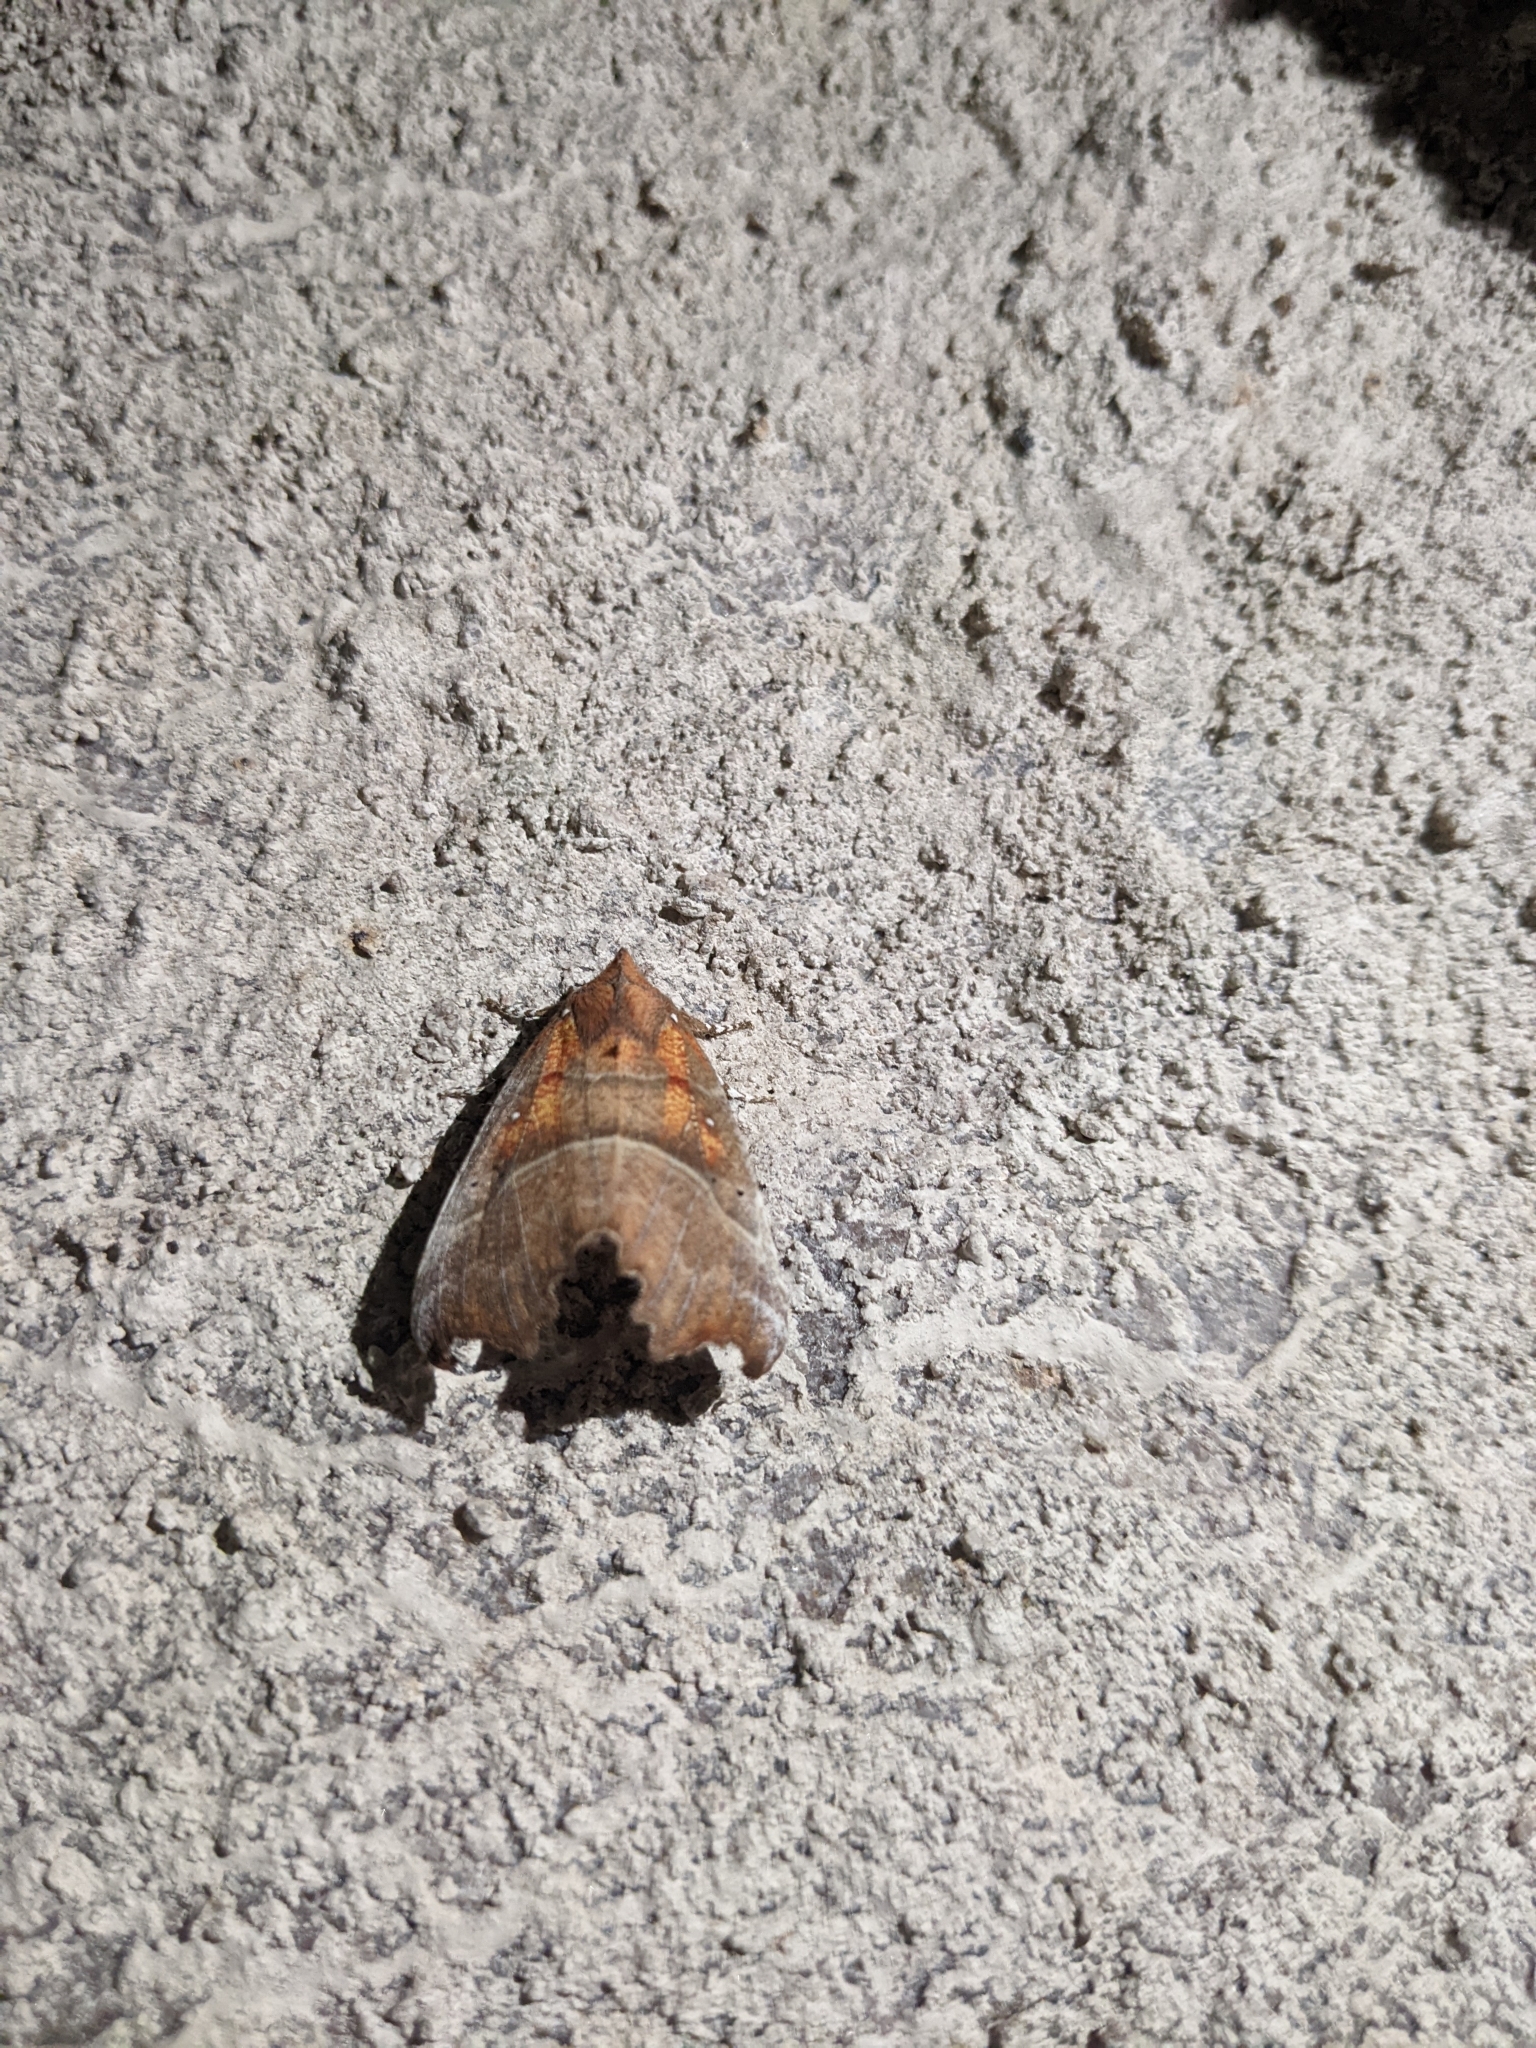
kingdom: Animalia
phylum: Arthropoda
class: Insecta
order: Lepidoptera
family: Erebidae
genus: Scoliopteryx
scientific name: Scoliopteryx libatrix
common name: Herald
